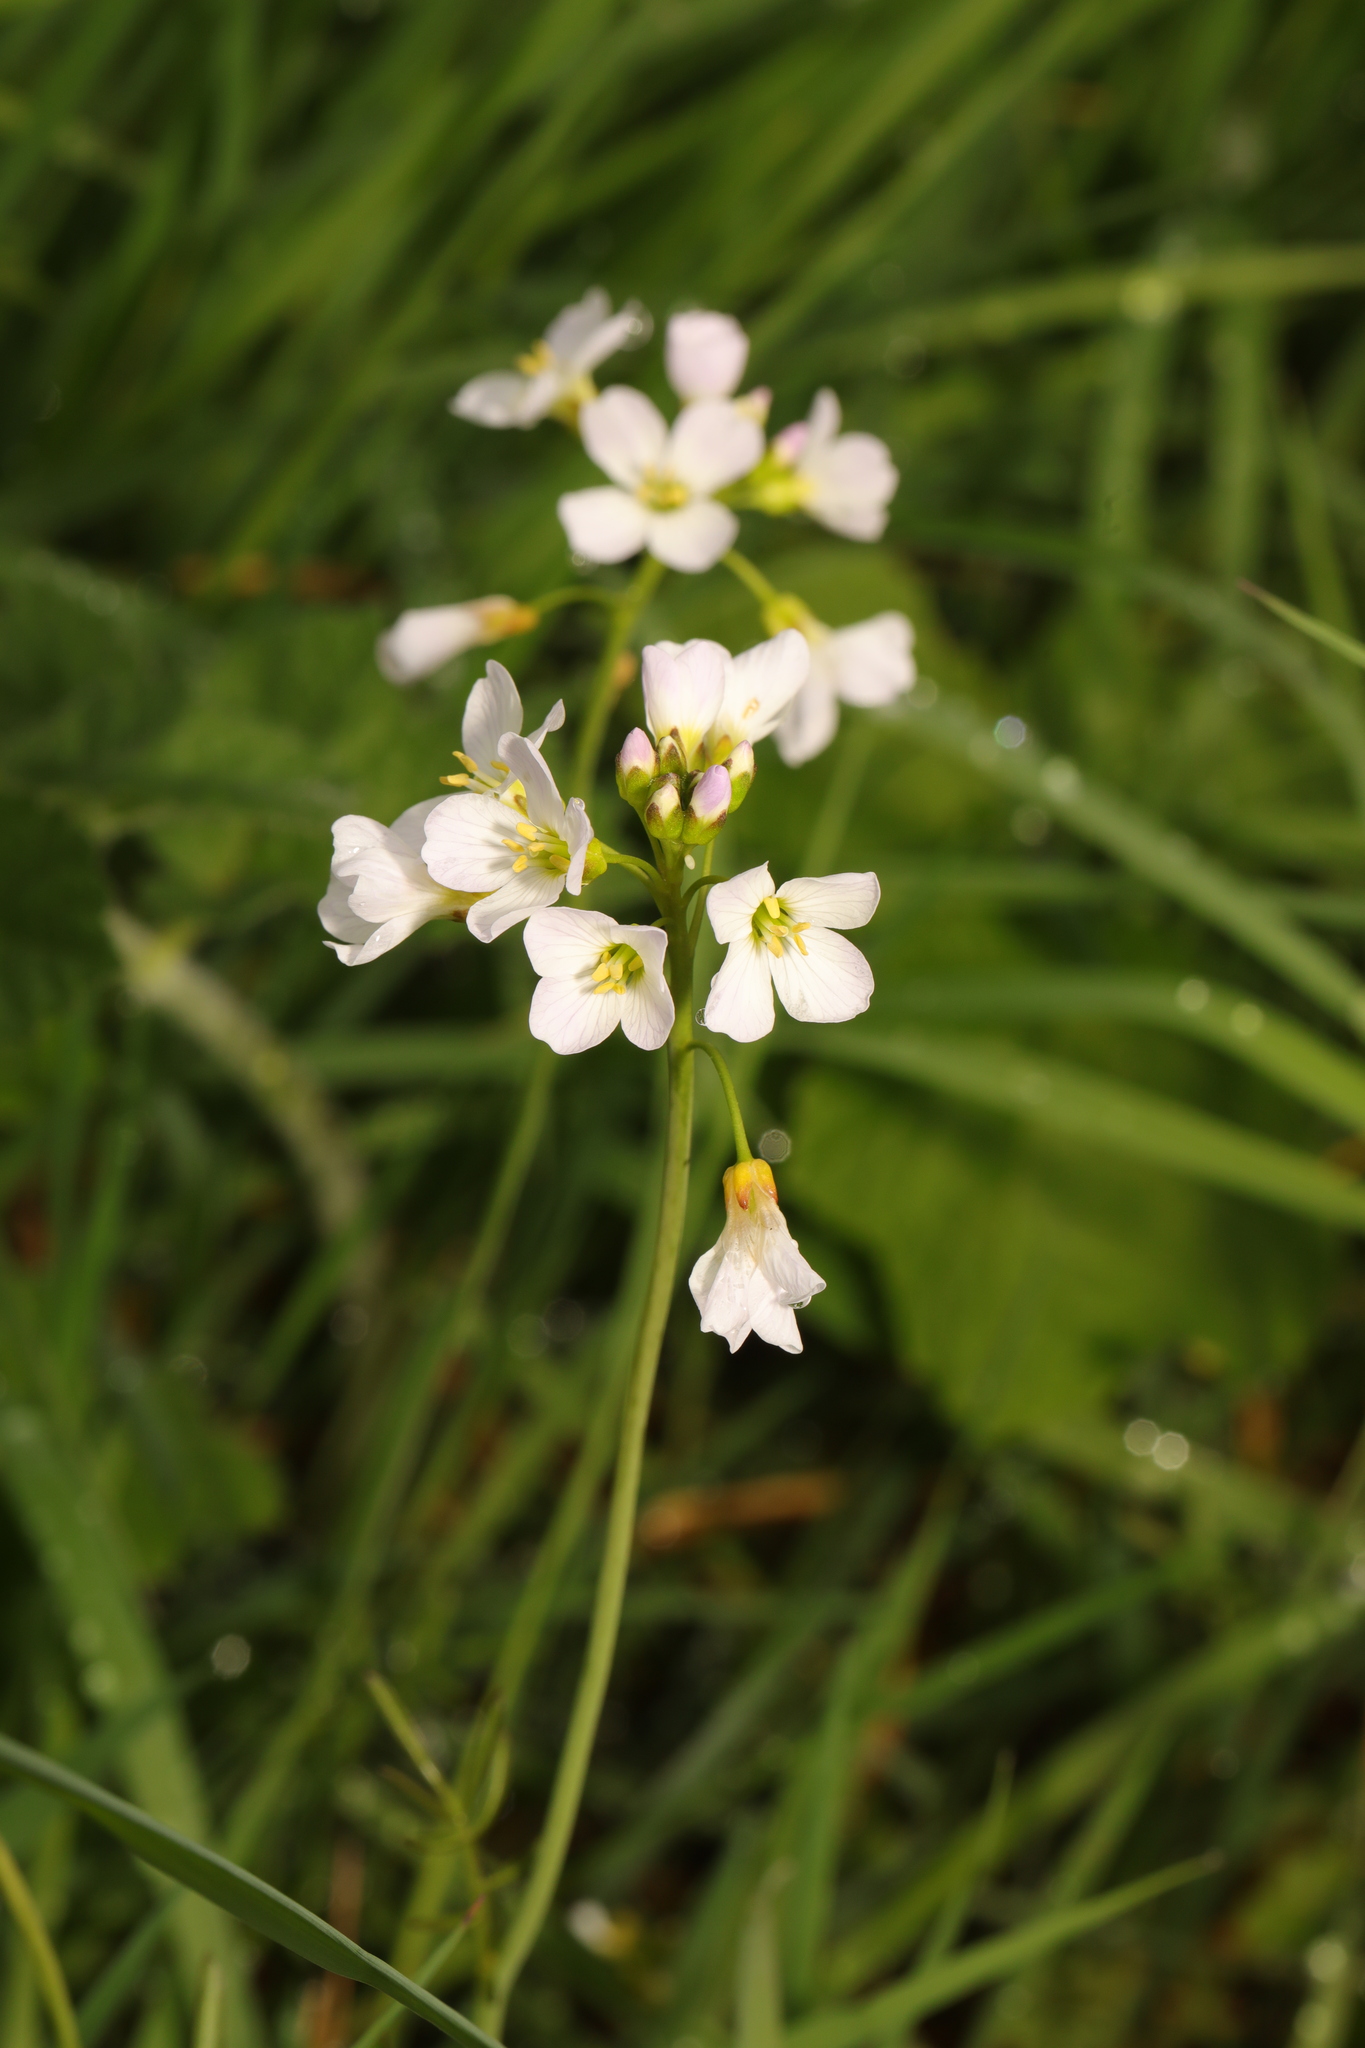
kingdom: Plantae
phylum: Tracheophyta
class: Magnoliopsida
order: Brassicales
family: Brassicaceae
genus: Cardamine
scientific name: Cardamine pratensis
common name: Cuckoo flower
